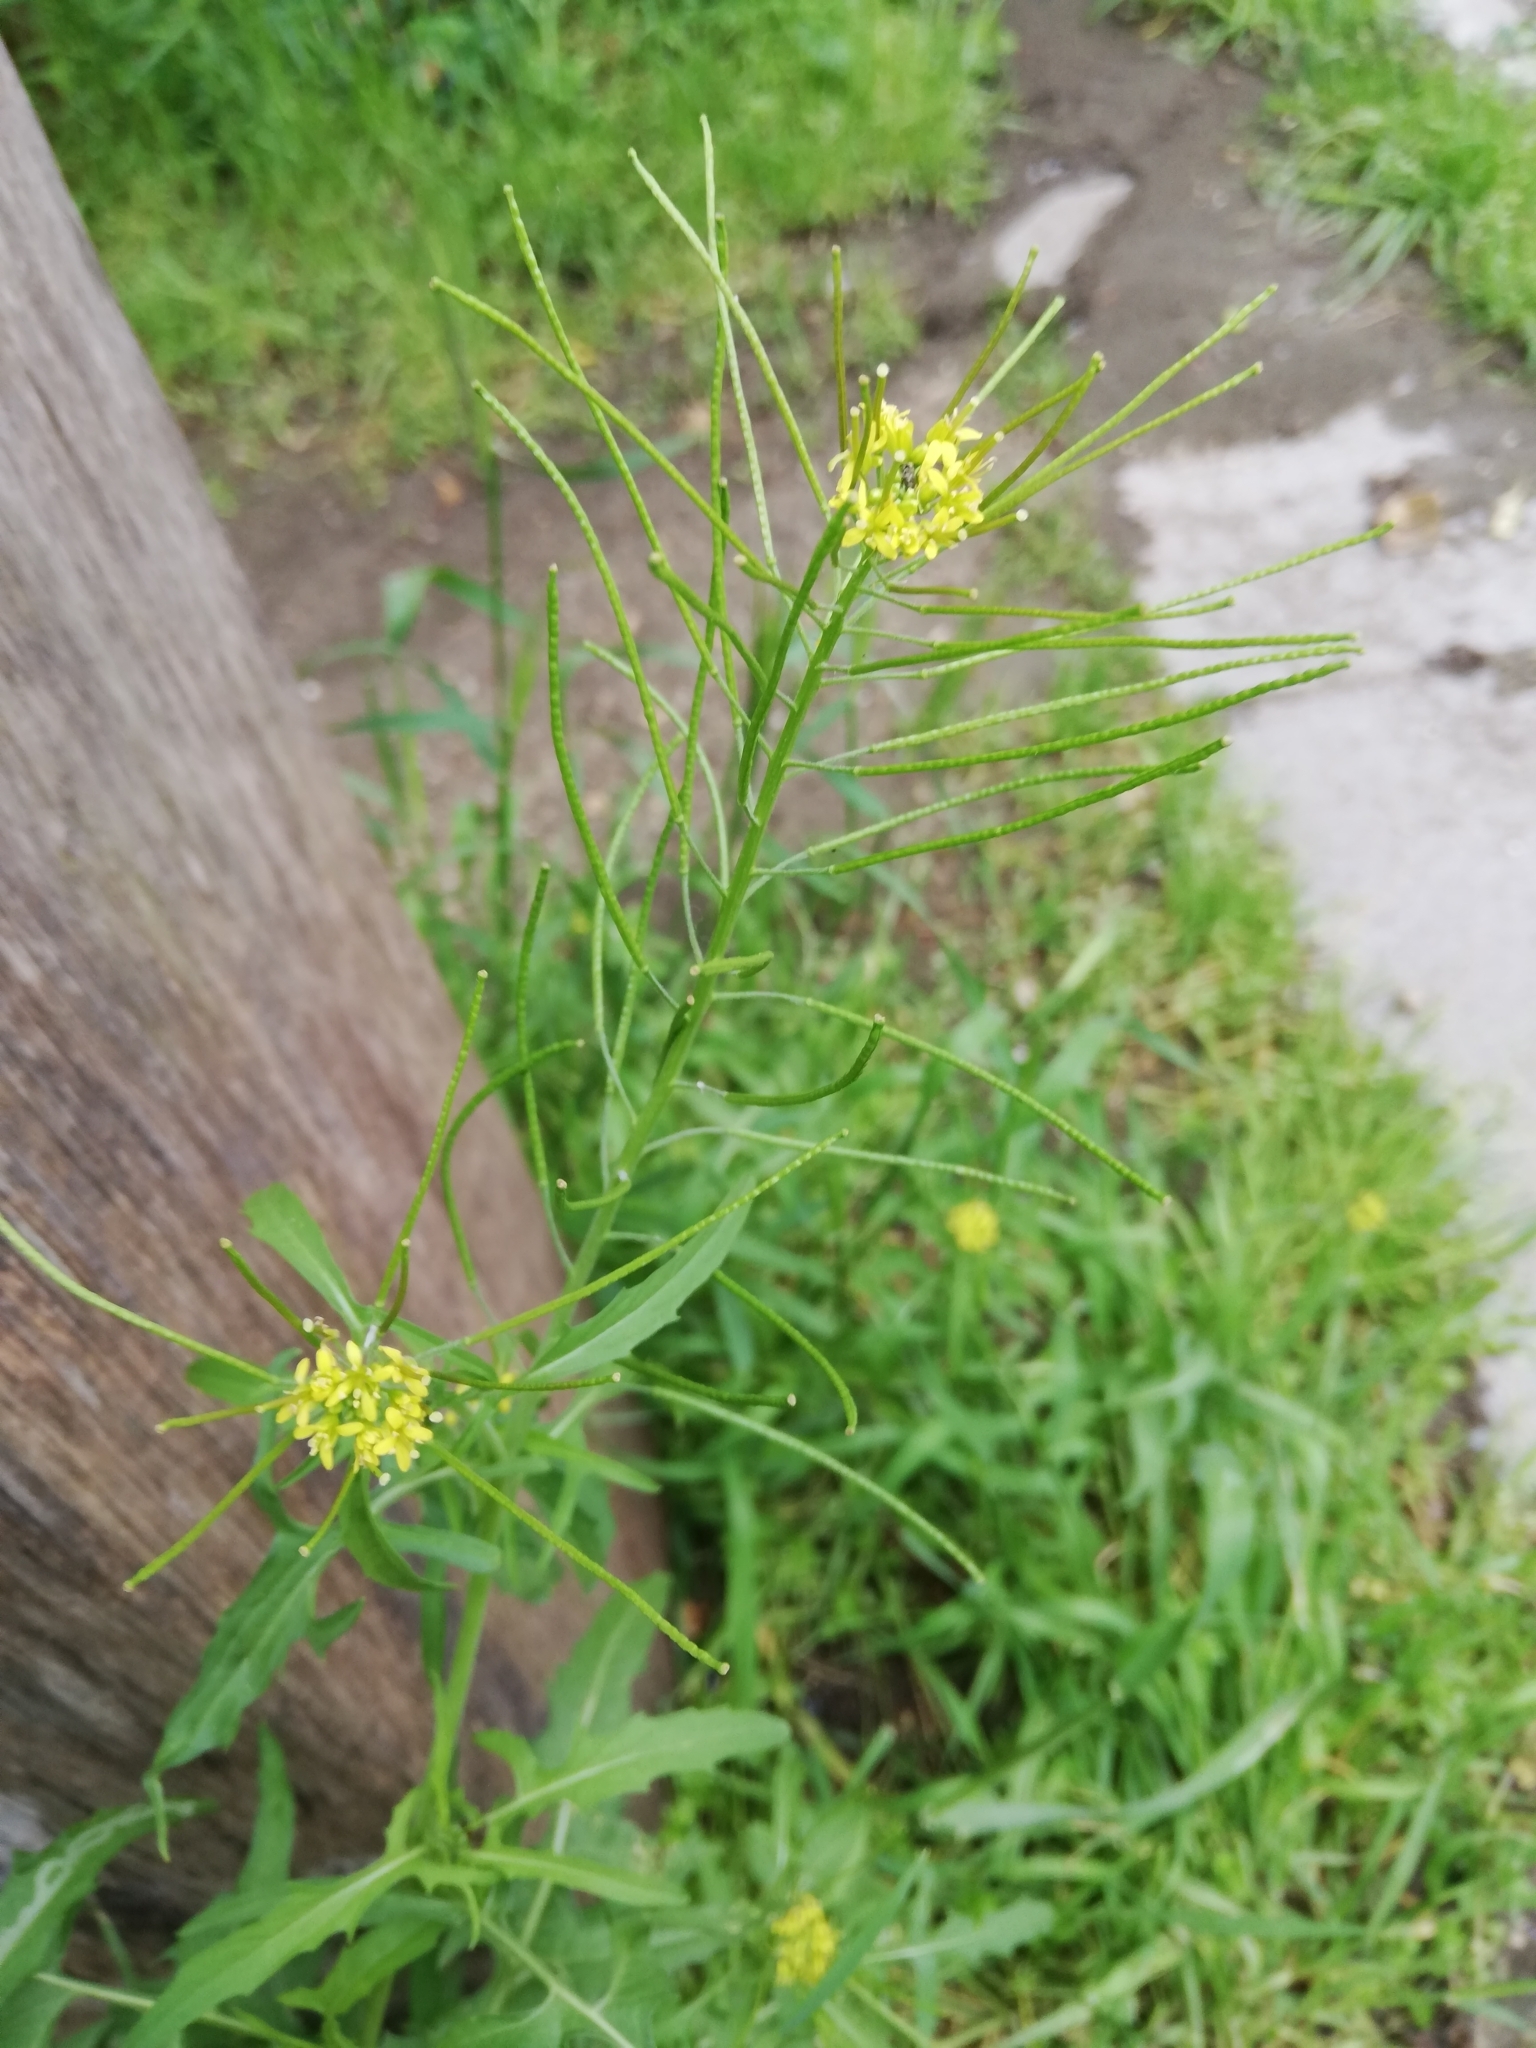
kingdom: Plantae
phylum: Tracheophyta
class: Magnoliopsida
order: Brassicales
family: Brassicaceae
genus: Sisymbrium
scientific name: Sisymbrium irio
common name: London rocket
